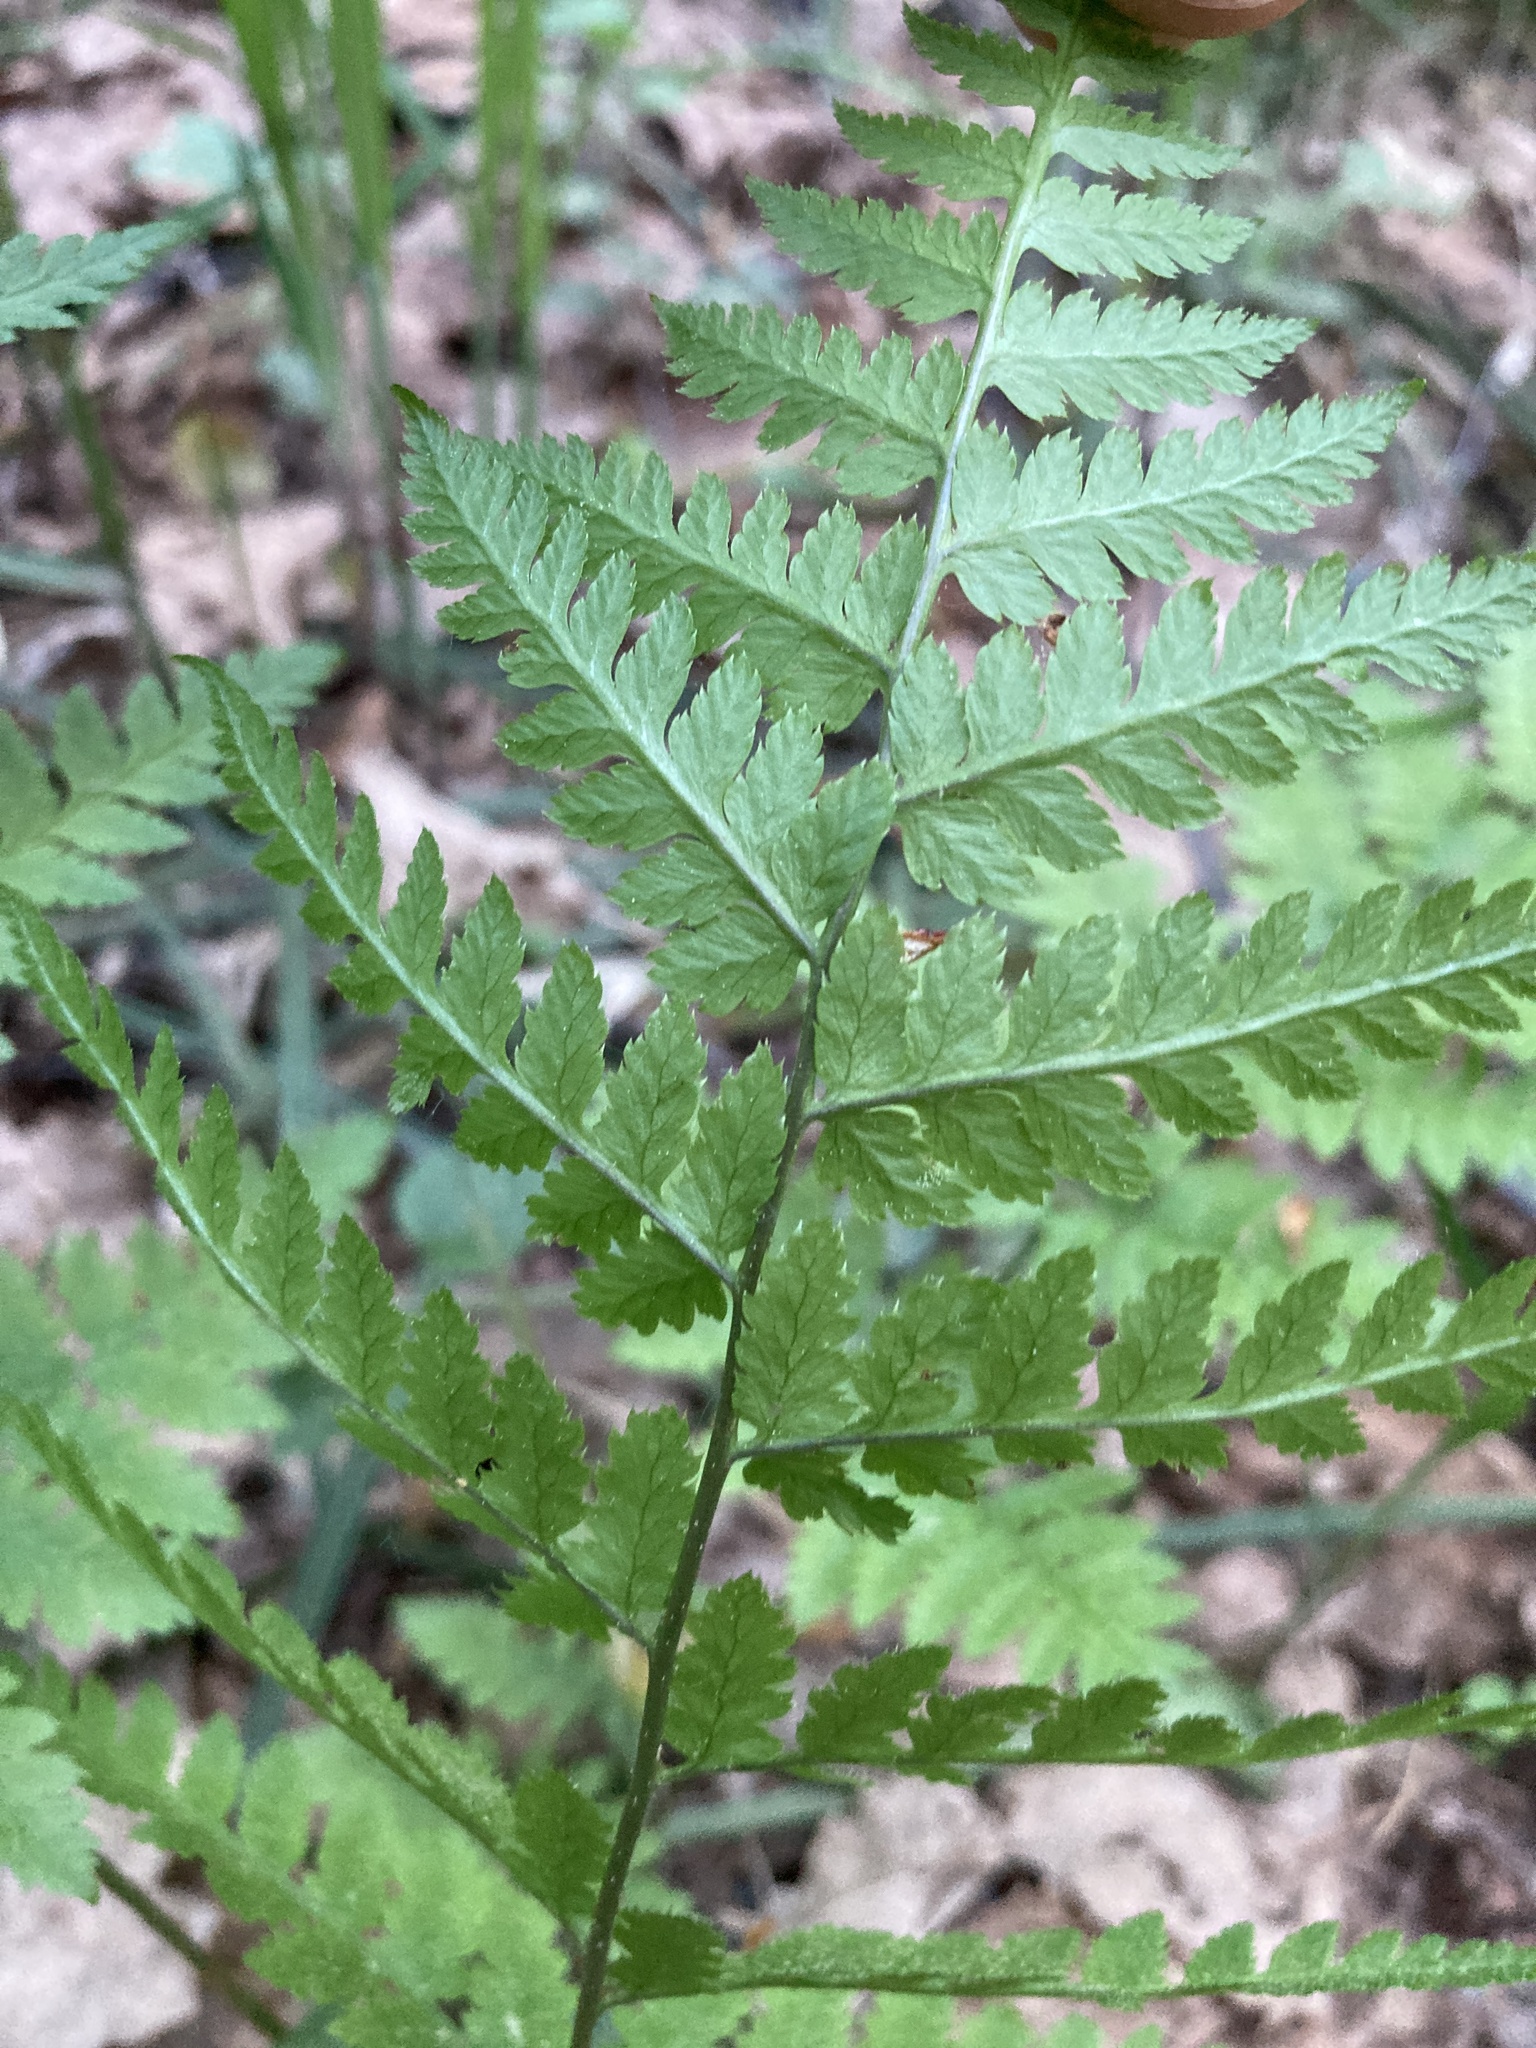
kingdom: Plantae
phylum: Tracheophyta
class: Polypodiopsida
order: Polypodiales
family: Dryopteridaceae
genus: Dryopteris
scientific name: Dryopteris carthusiana
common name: Narrow buckler-fern
